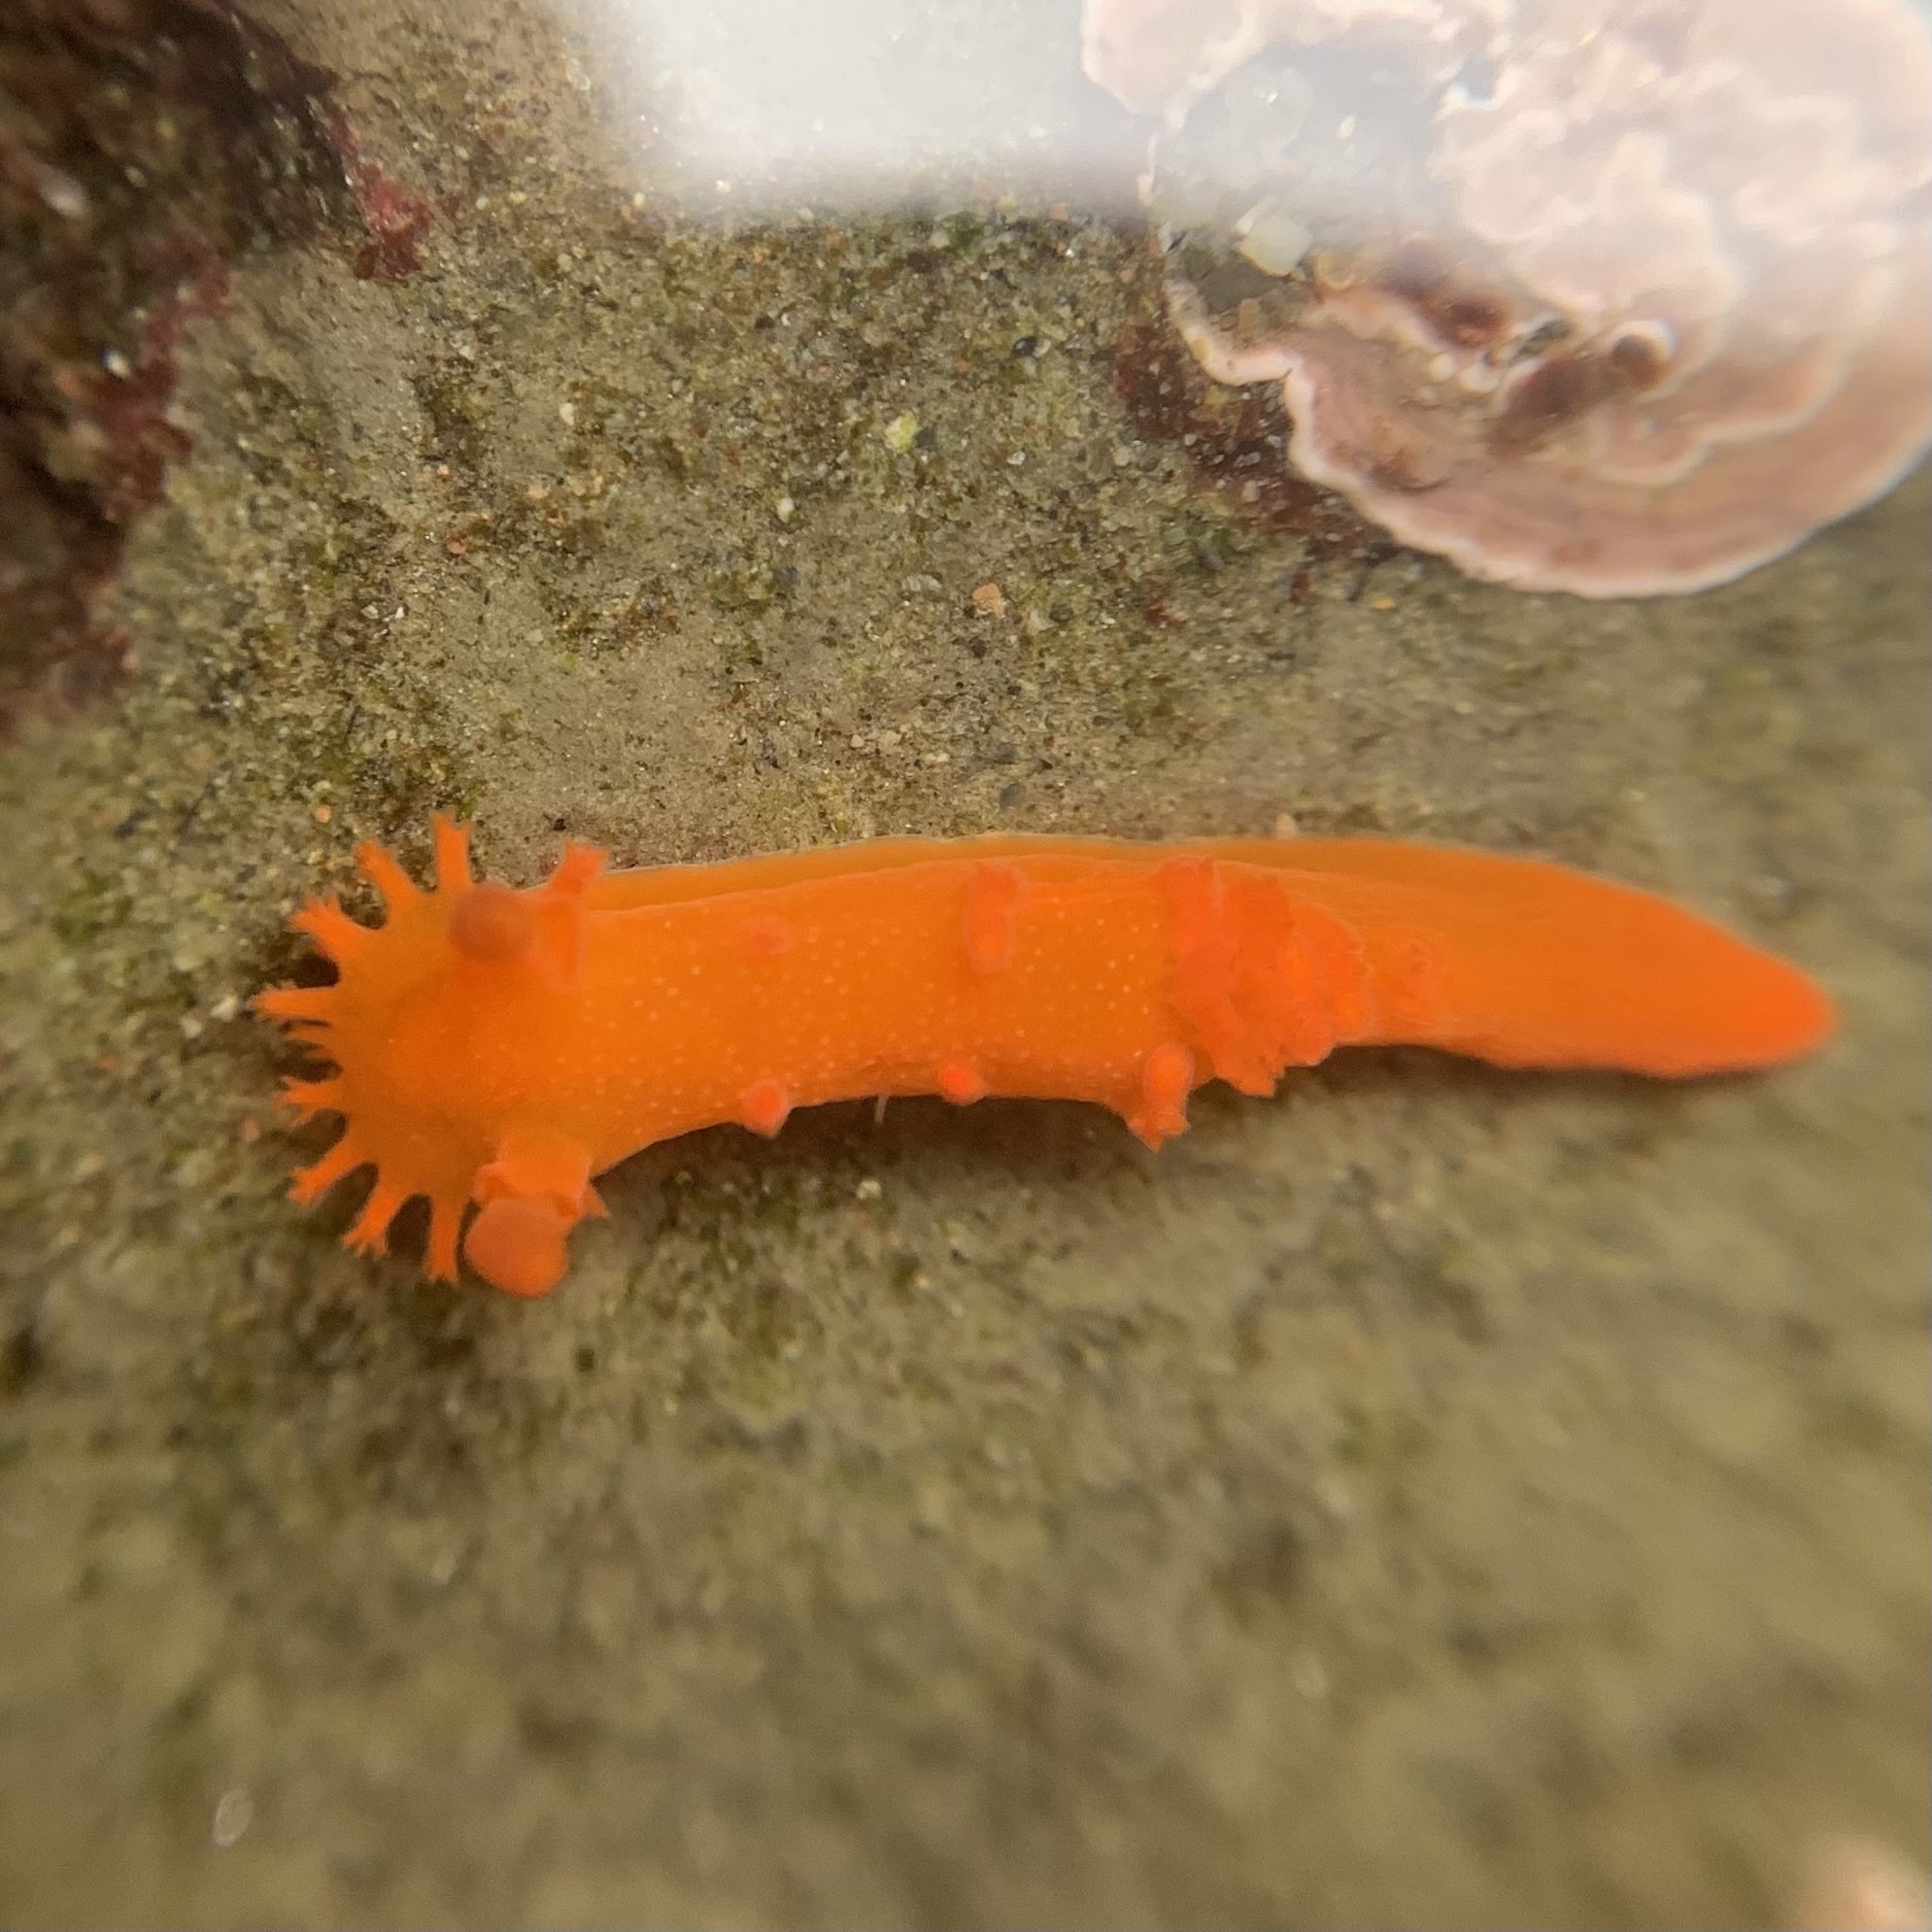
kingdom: Animalia
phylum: Mollusca
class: Gastropoda
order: Nudibranchia
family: Polyceridae
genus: Triopha
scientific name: Triopha maculata
